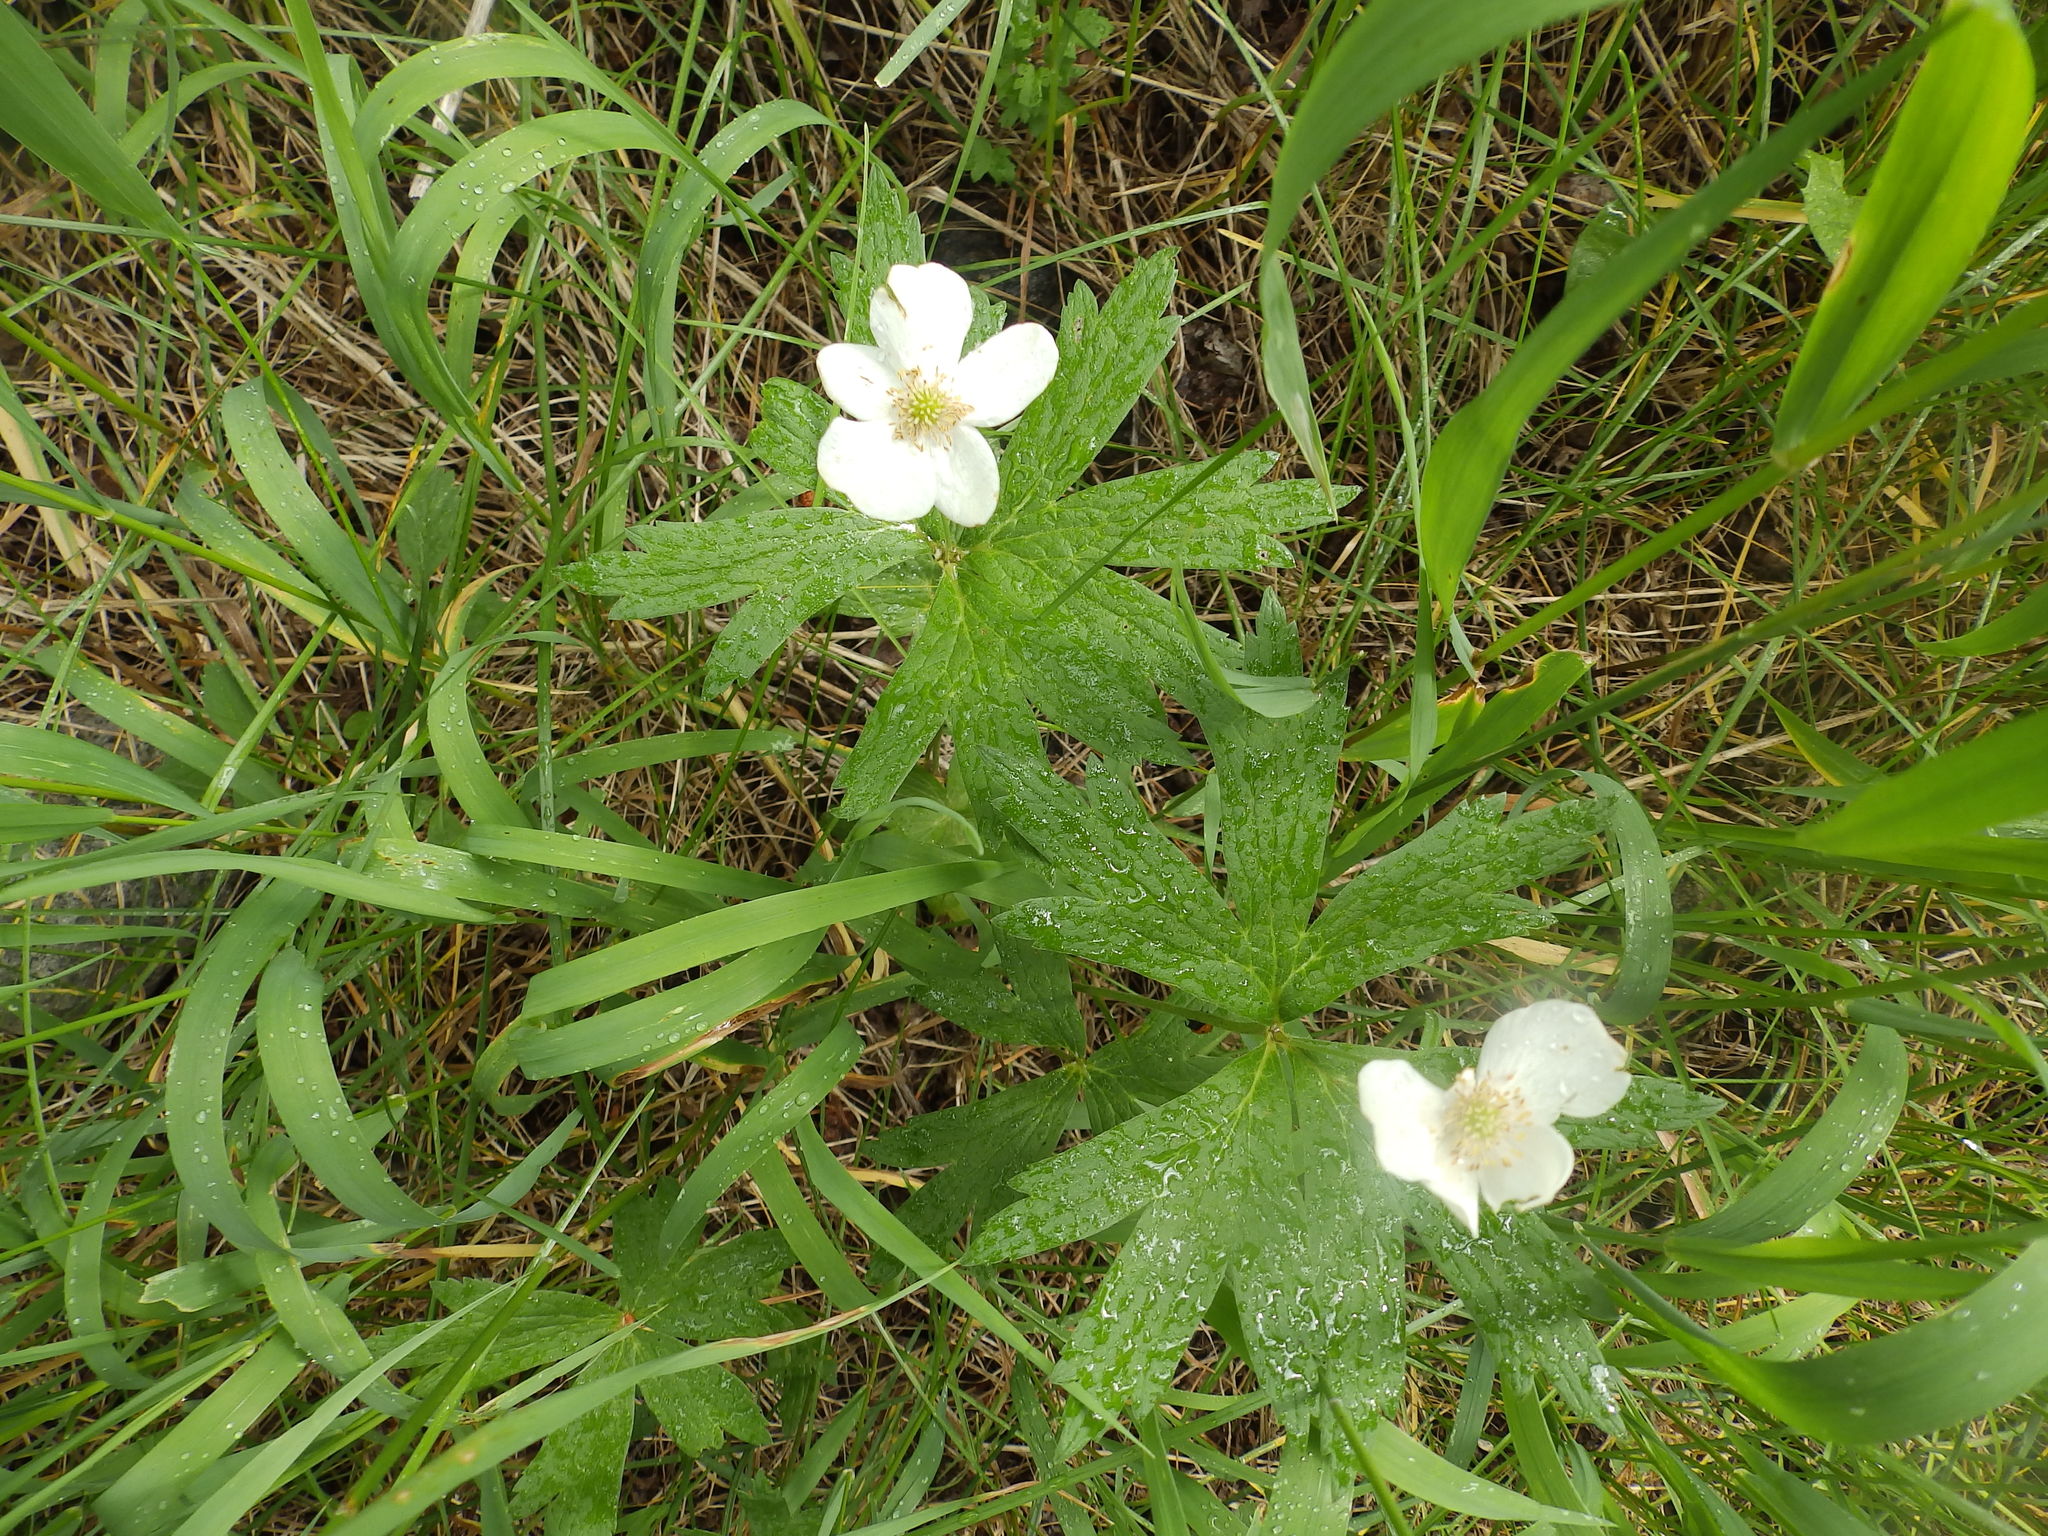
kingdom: Plantae
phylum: Tracheophyta
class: Magnoliopsida
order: Ranunculales
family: Ranunculaceae
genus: Anemonastrum
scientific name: Anemonastrum canadense
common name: Canada anemone
